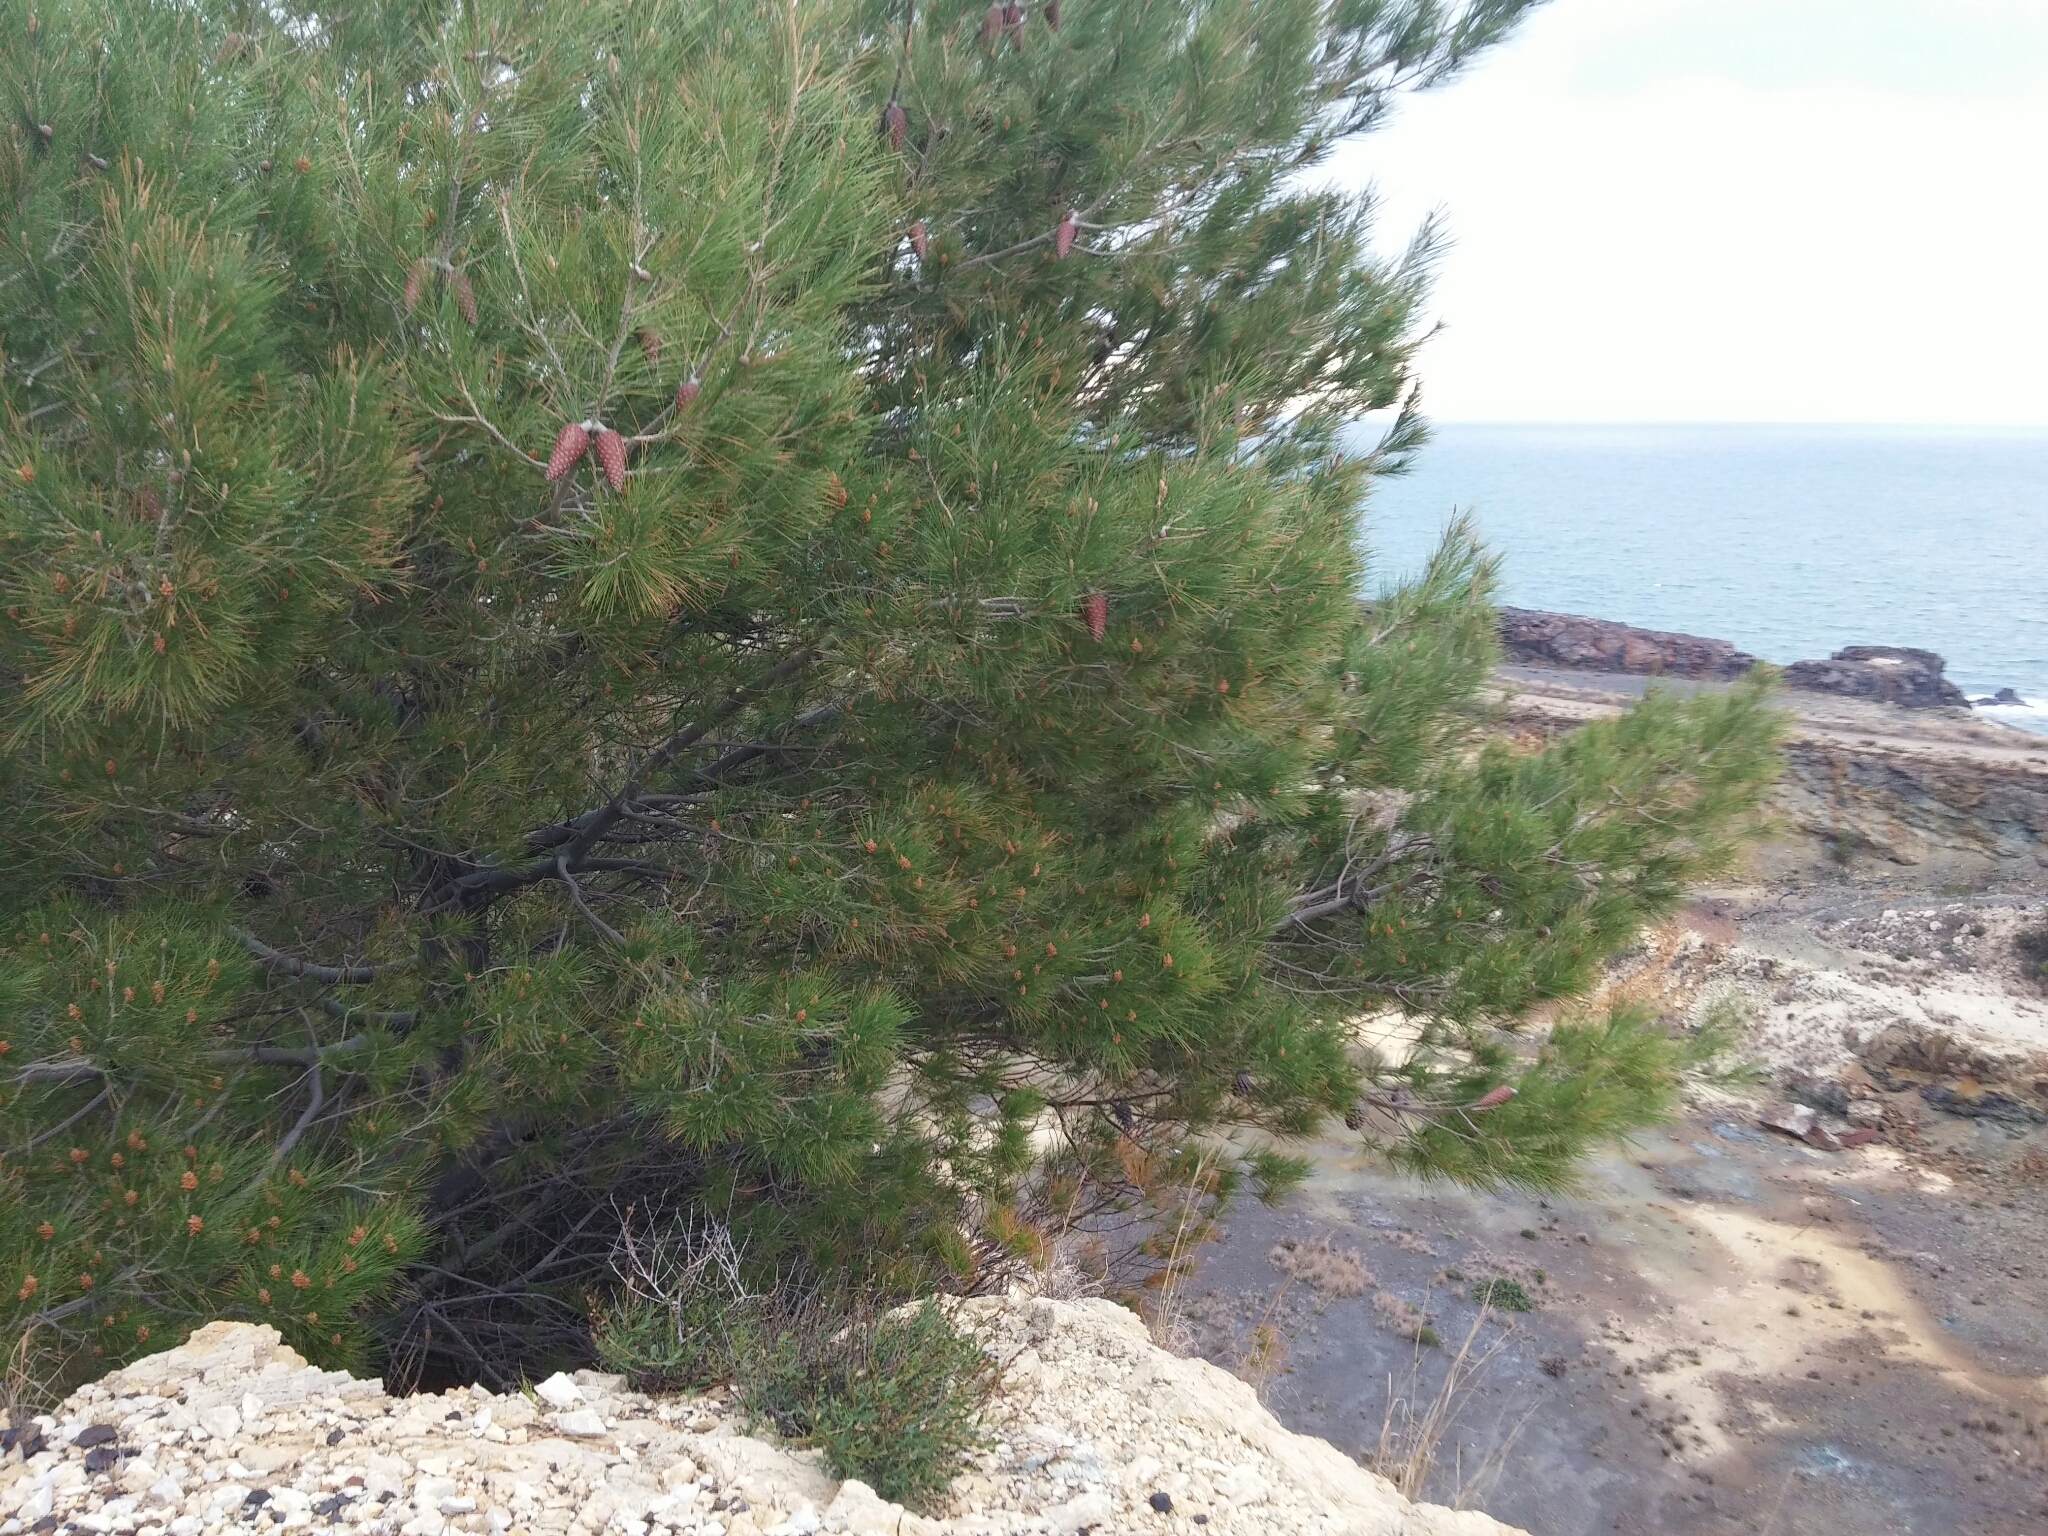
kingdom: Plantae
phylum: Tracheophyta
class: Pinopsida
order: Pinales
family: Pinaceae
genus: Pinus
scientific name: Pinus halepensis
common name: Aleppo pine
